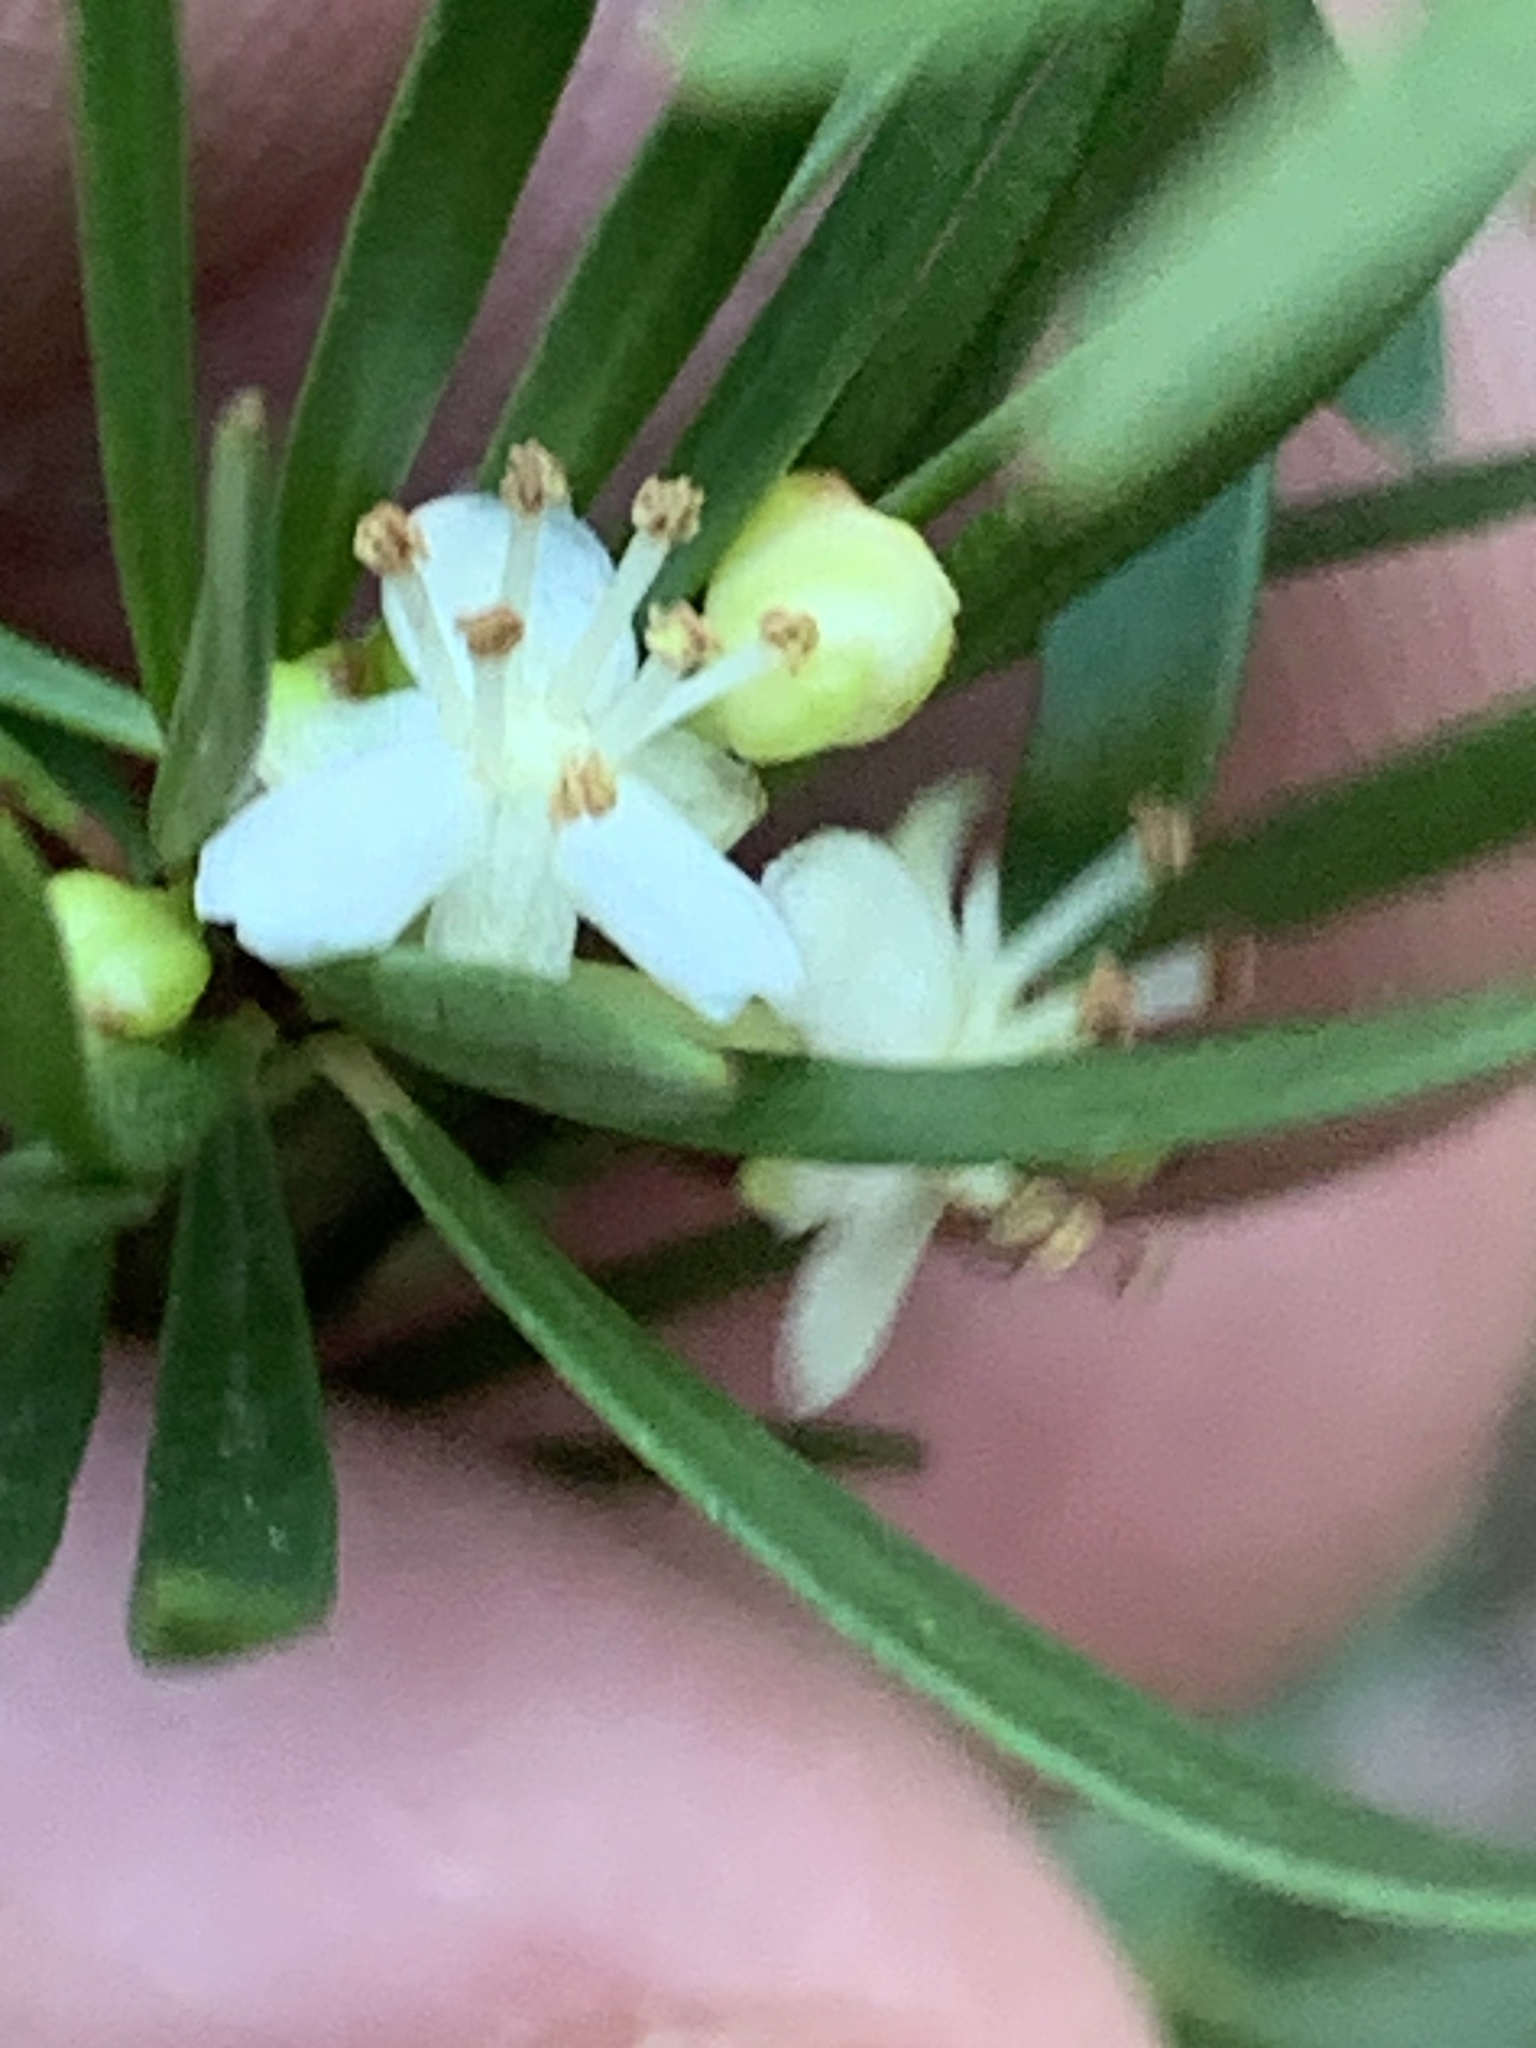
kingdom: Plantae
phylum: Tracheophyta
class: Magnoliopsida
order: Malpighiales
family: Picrodendraceae
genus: Micrantheum
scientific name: Micrantheum hexandrum
